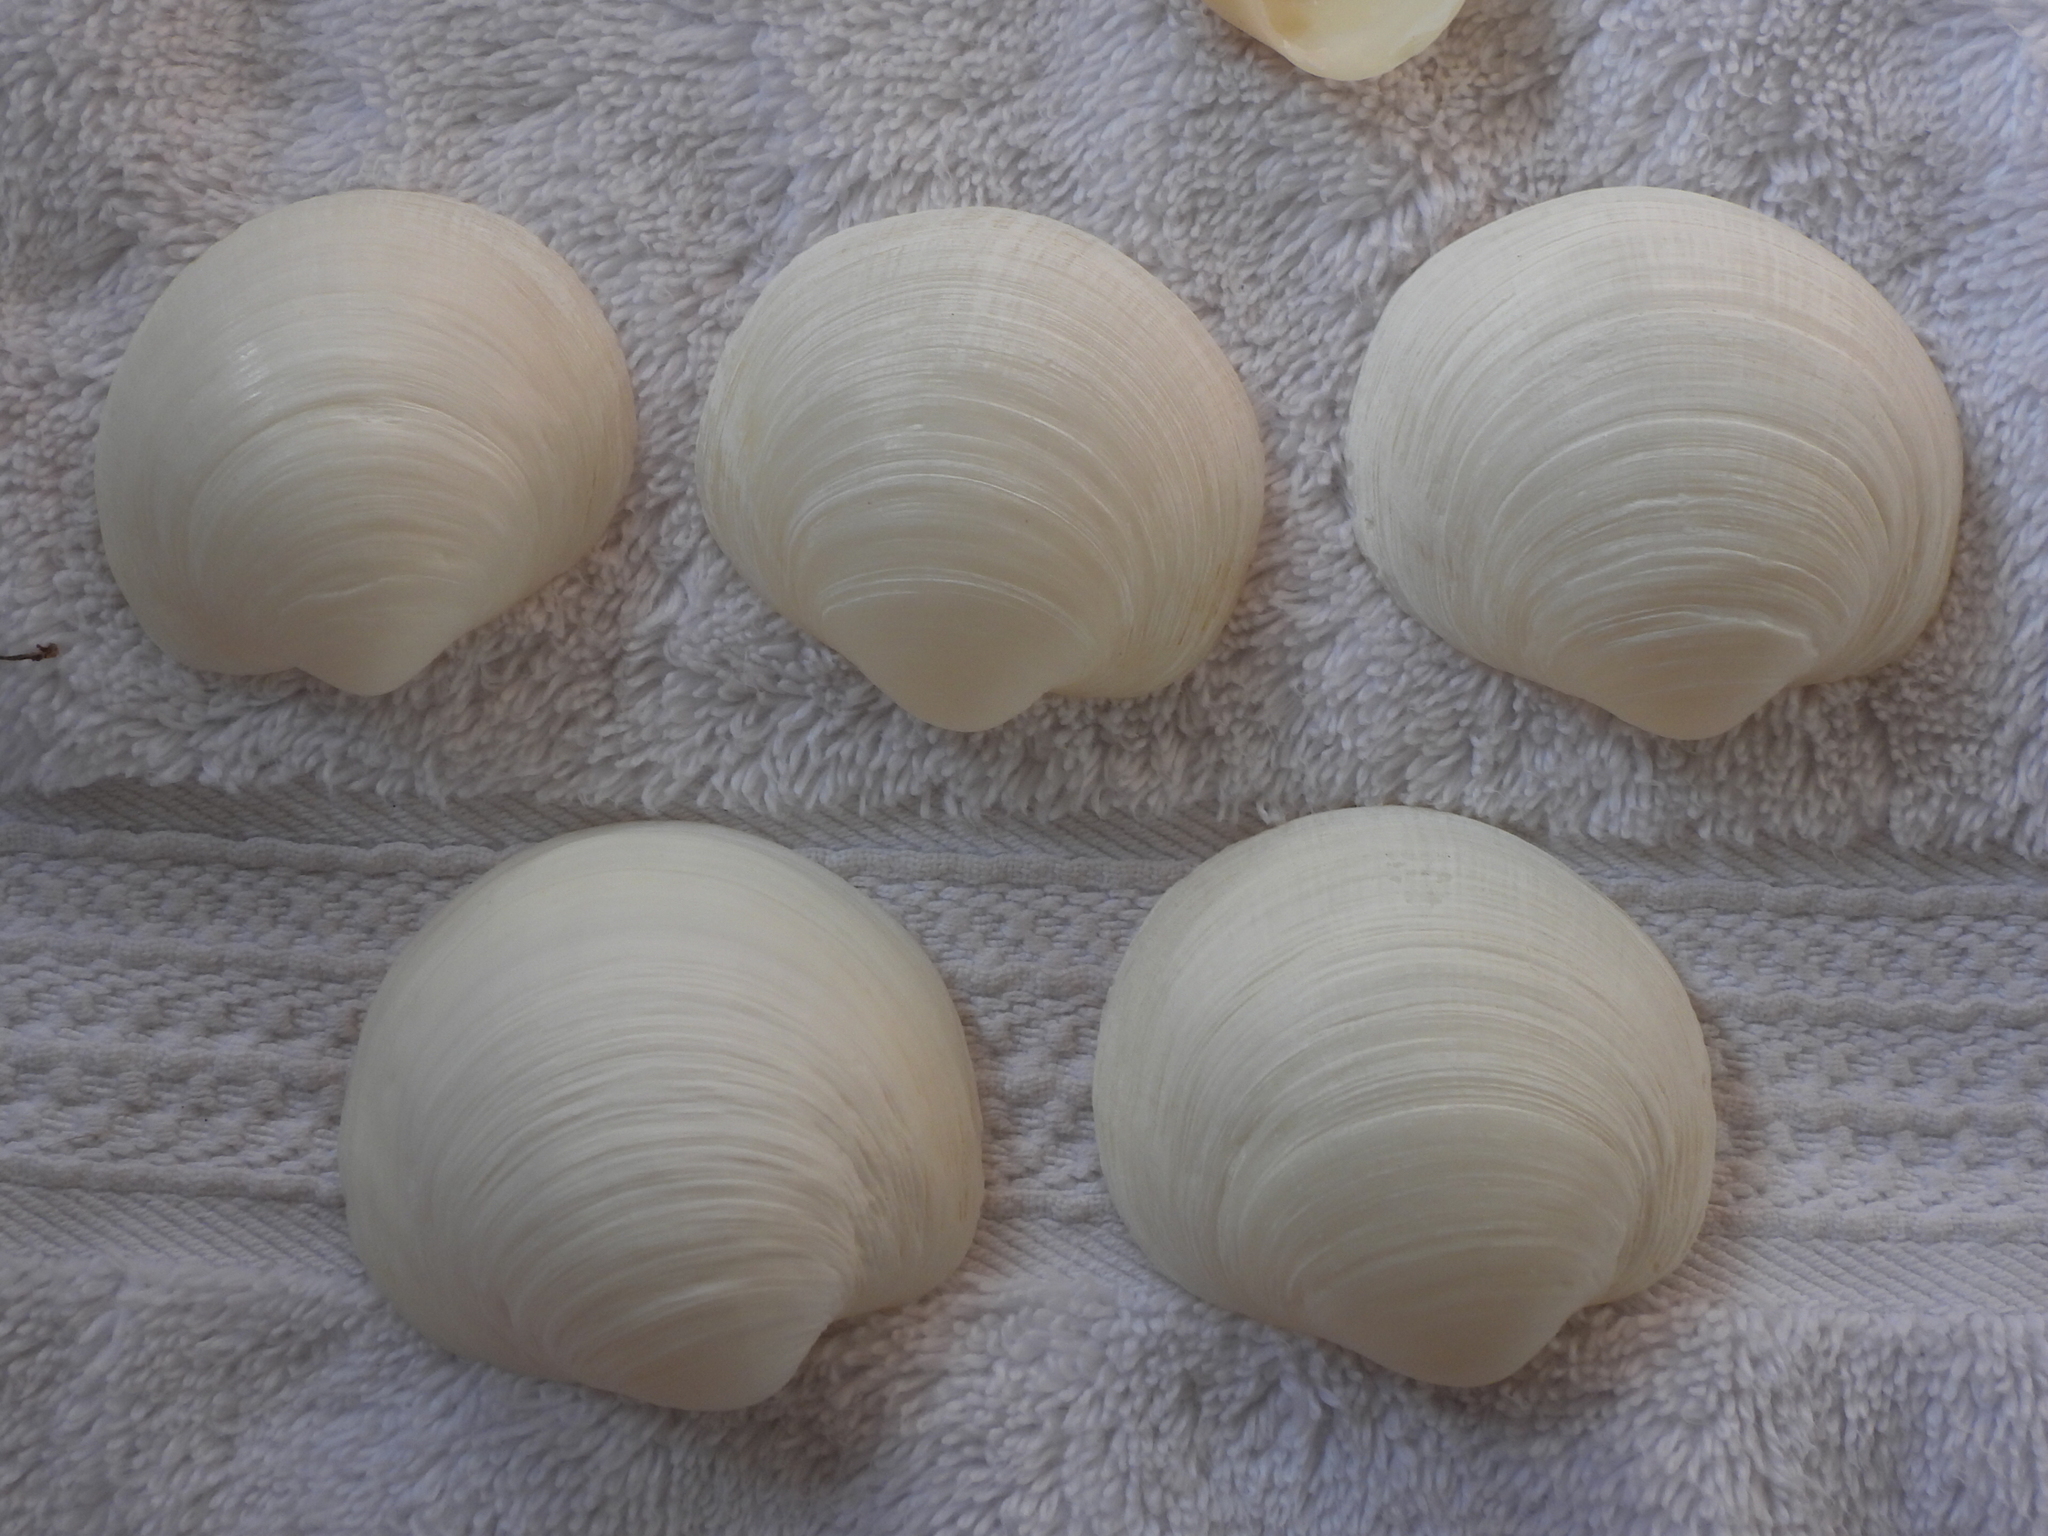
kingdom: Animalia
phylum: Mollusca
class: Bivalvia
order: Lucinida
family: Lucinidae
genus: Pegophysema
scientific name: Pegophysema kora
